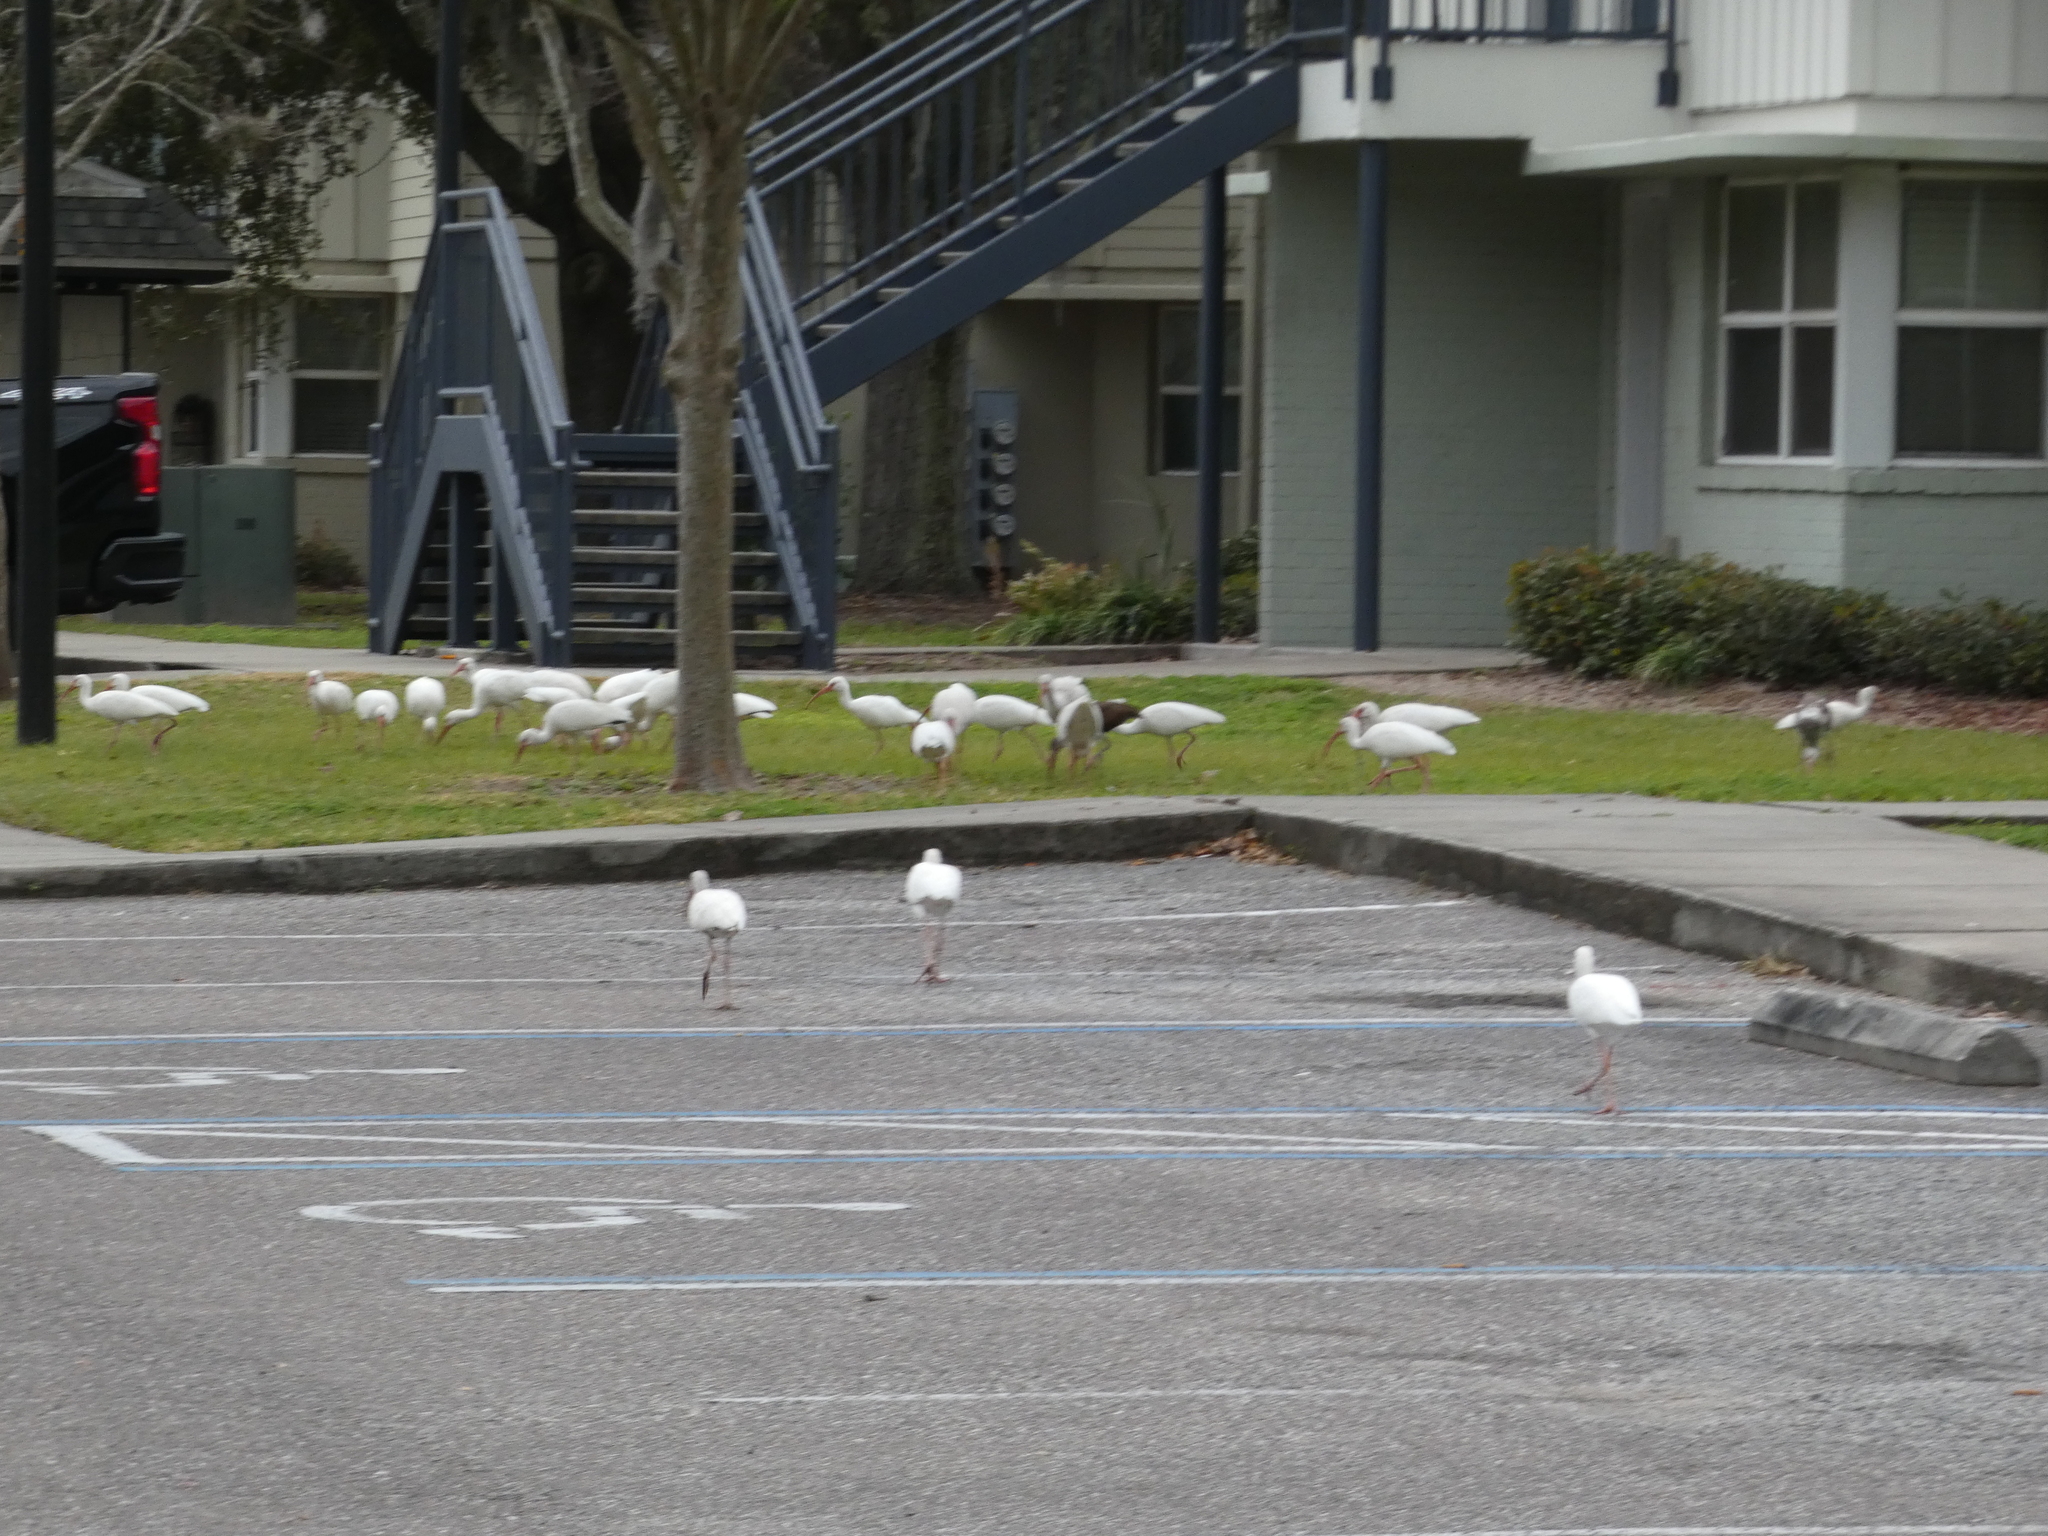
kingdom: Animalia
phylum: Chordata
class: Aves
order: Pelecaniformes
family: Threskiornithidae
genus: Eudocimus
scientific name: Eudocimus albus
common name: White ibis
